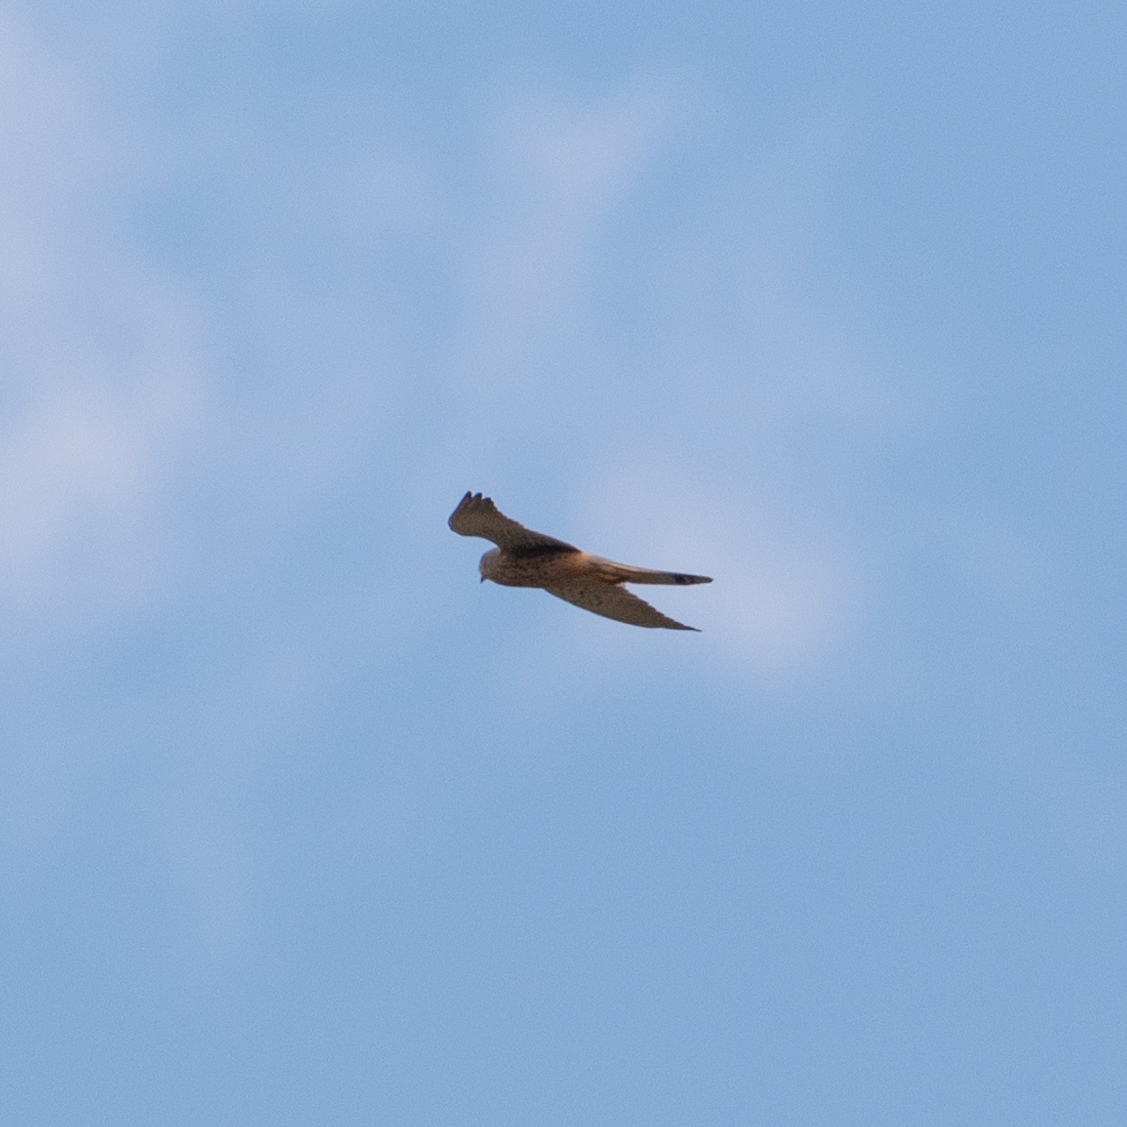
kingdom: Animalia
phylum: Chordata
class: Aves
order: Falconiformes
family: Falconidae
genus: Falco
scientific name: Falco tinnunculus
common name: Common kestrel
